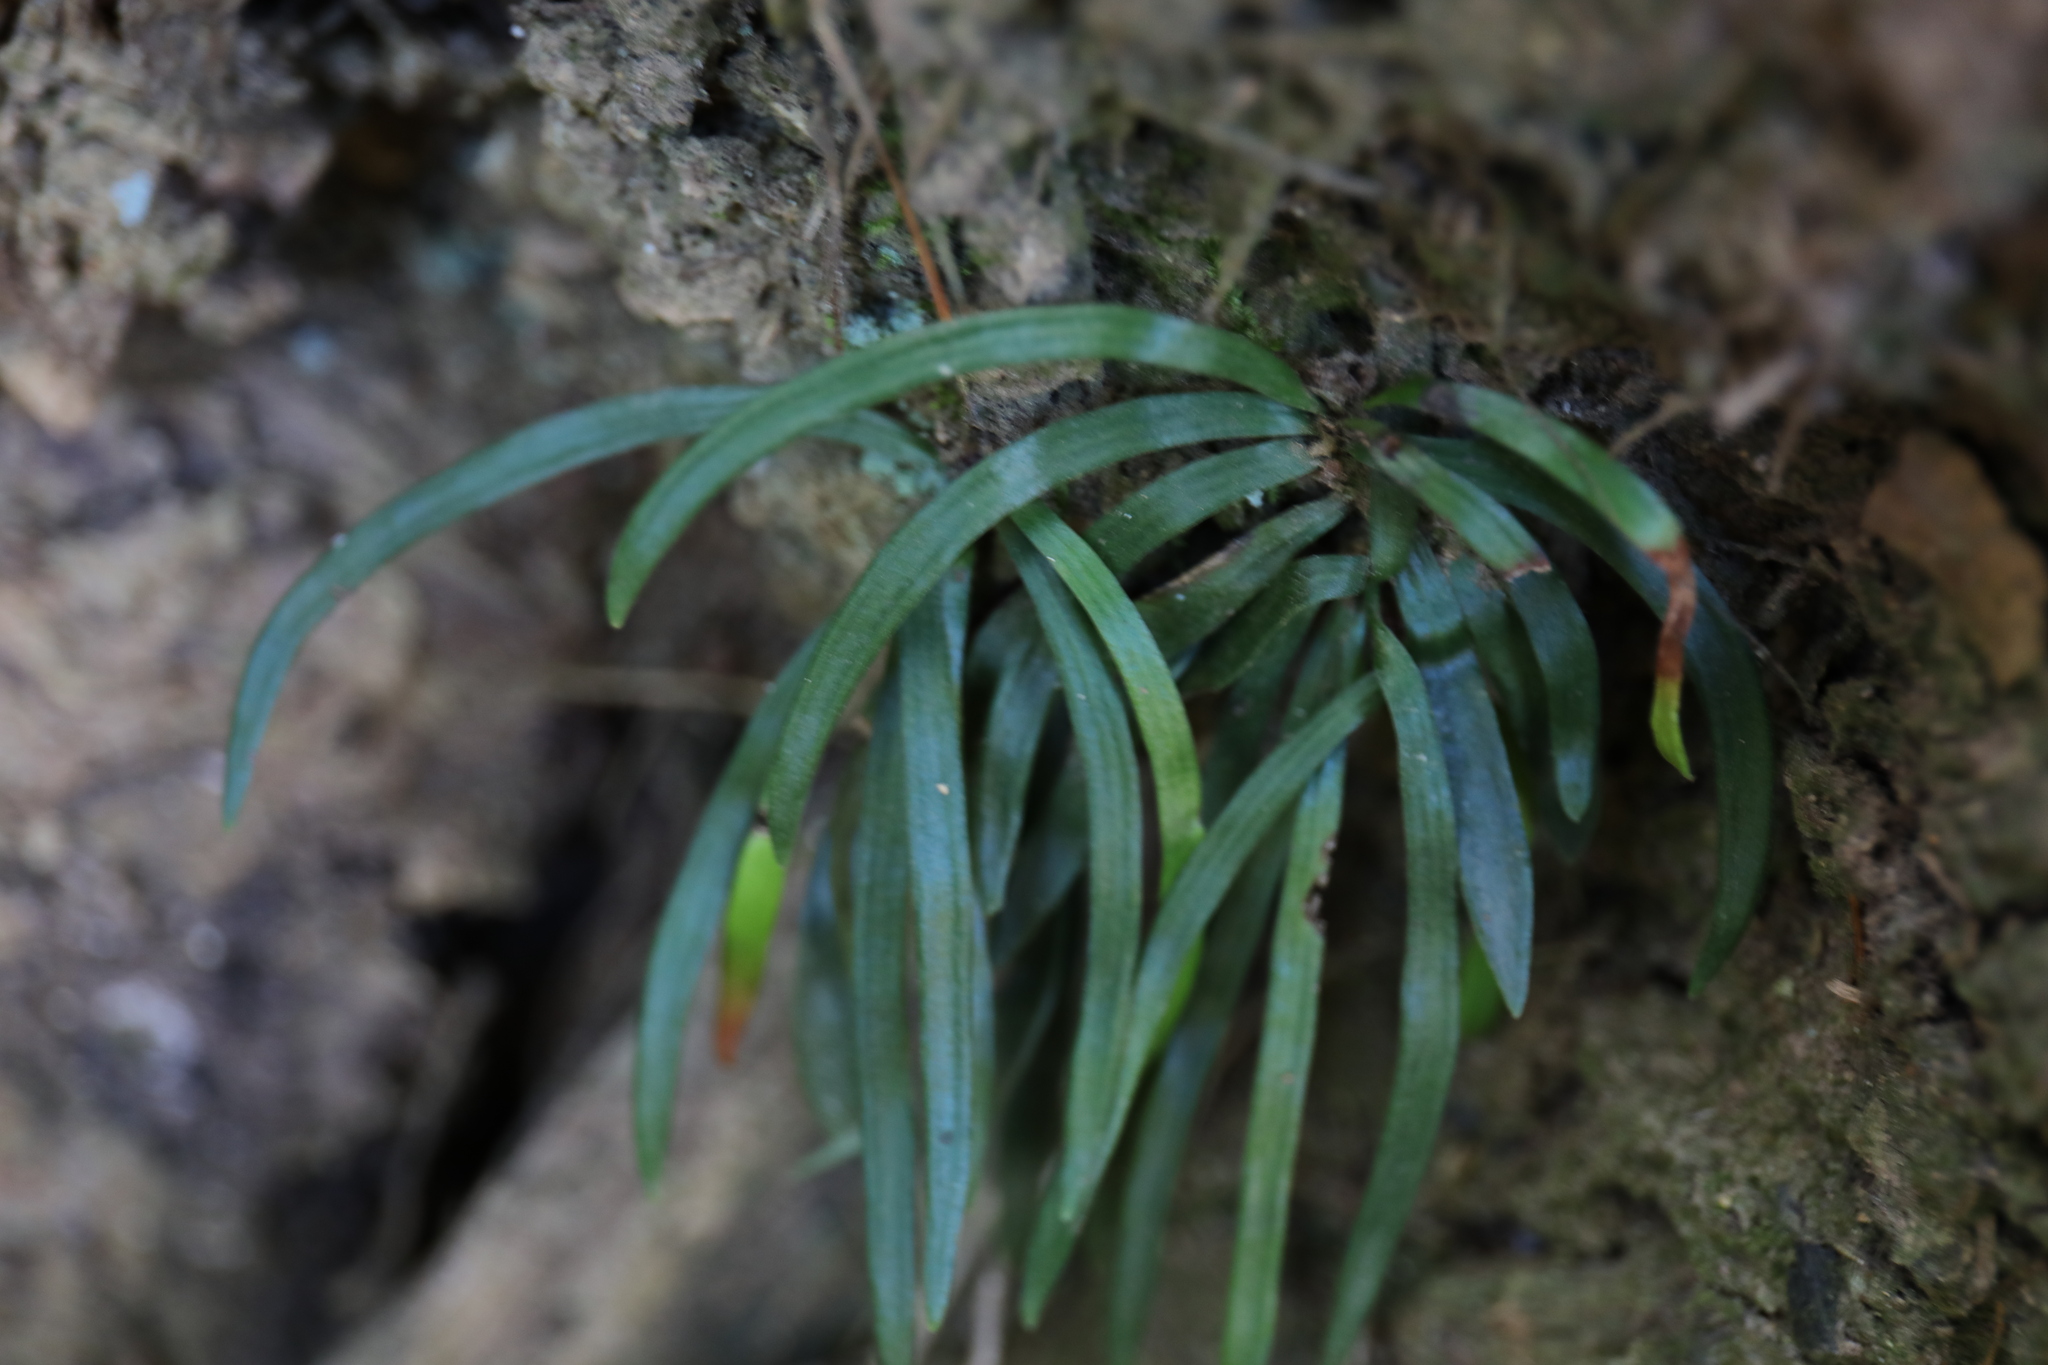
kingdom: Plantae
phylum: Tracheophyta
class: Polypodiopsida
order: Polypodiales
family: Pteridaceae
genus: Haplopteris
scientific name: Haplopteris anguste-elongata
